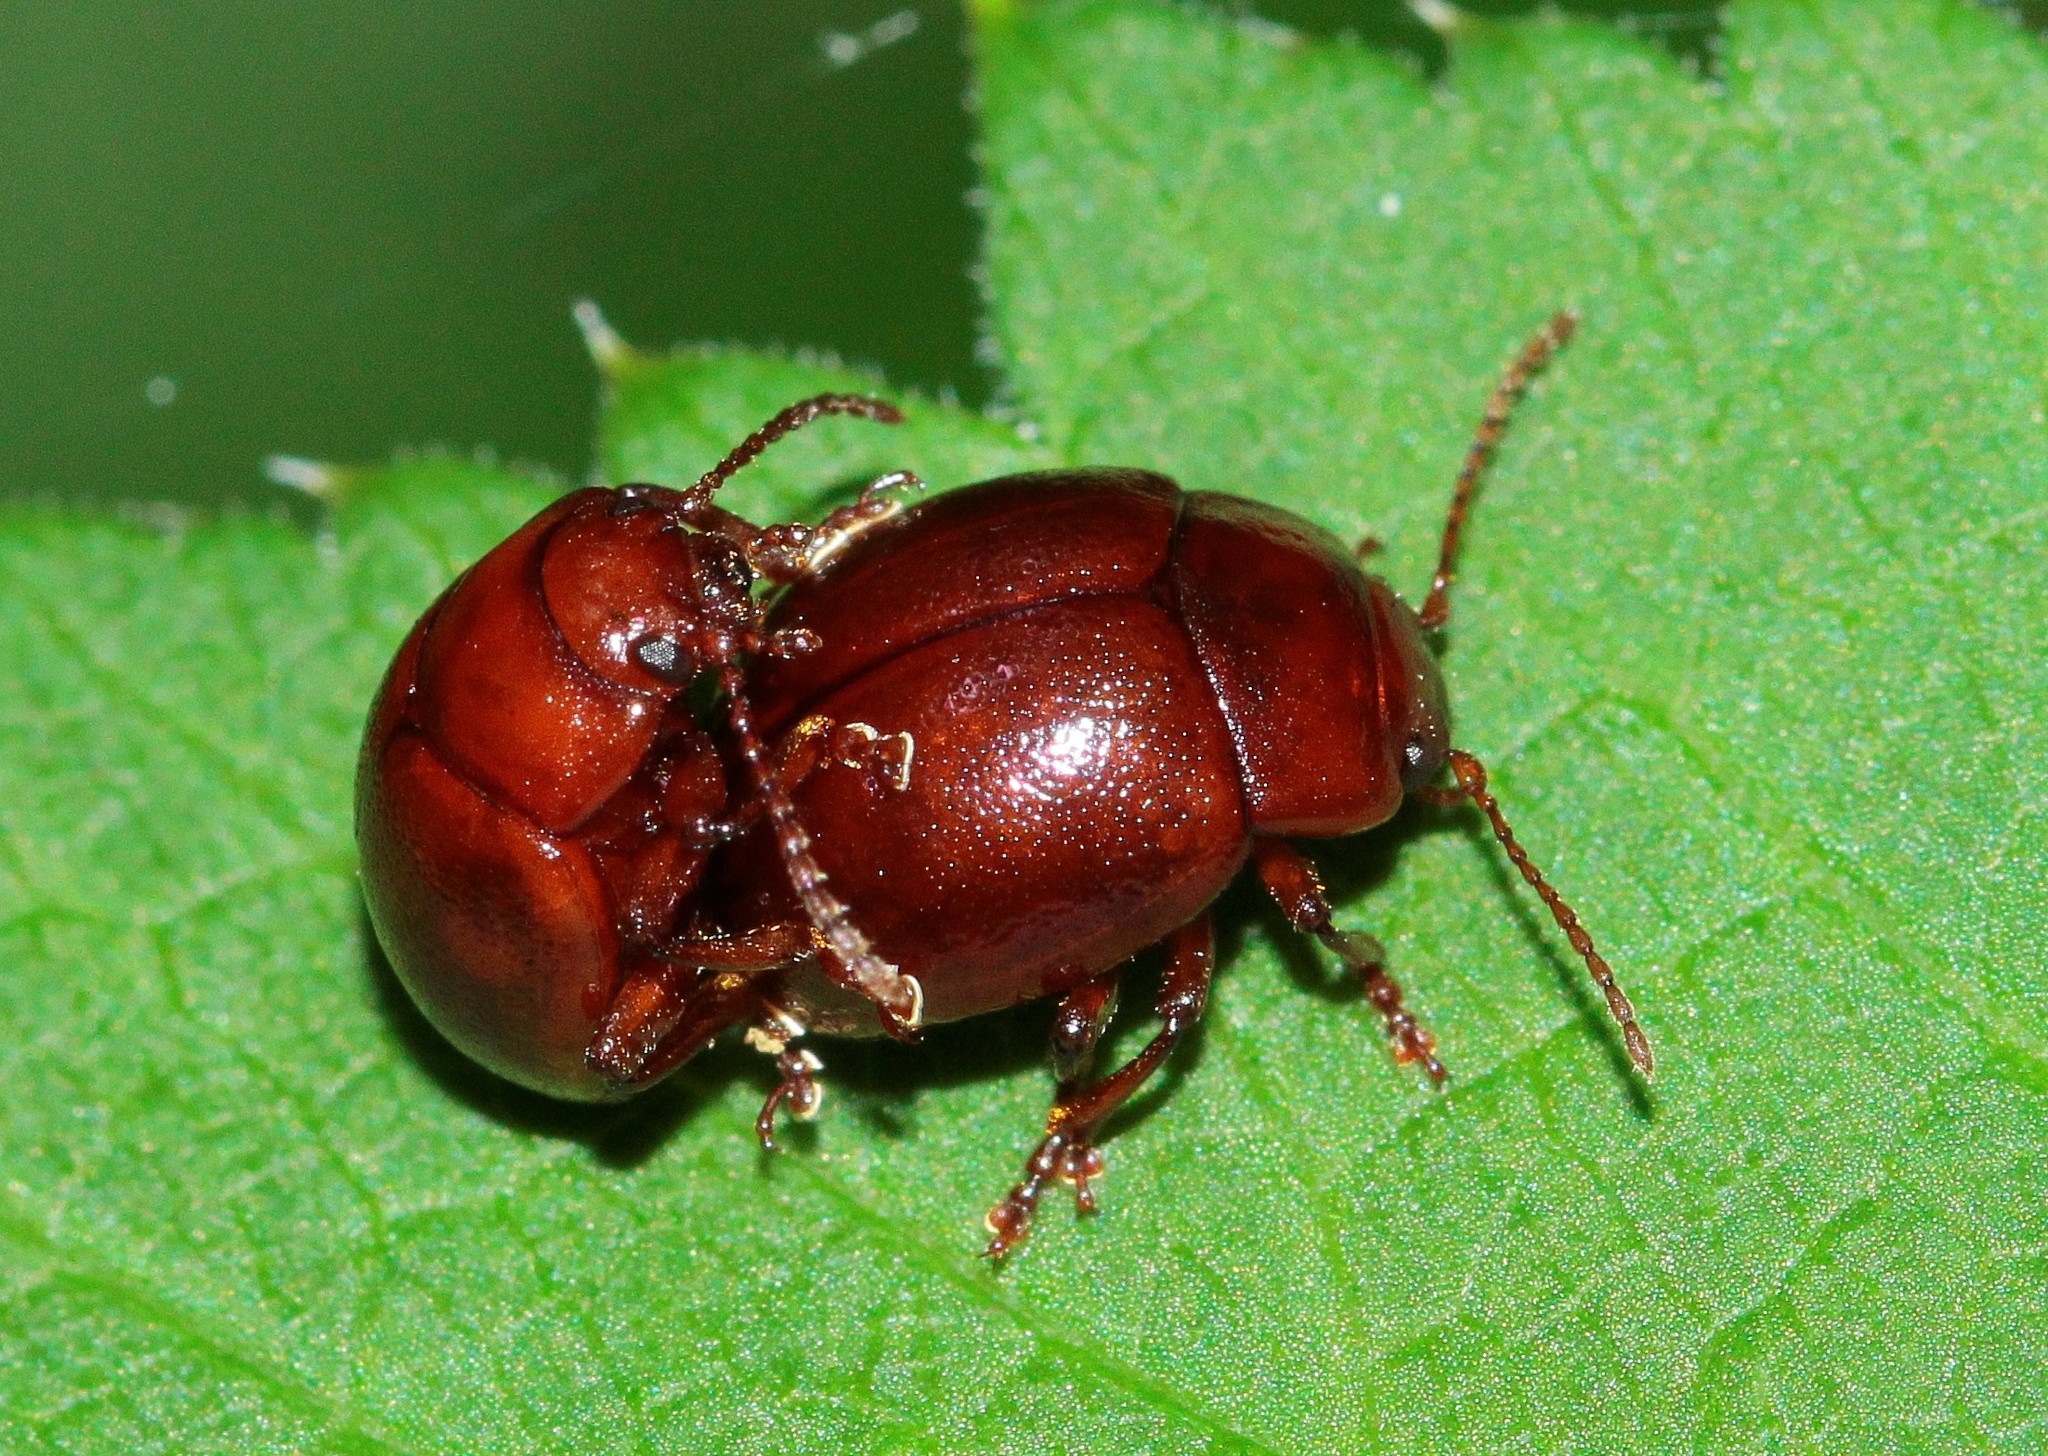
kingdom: Animalia
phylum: Arthropoda
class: Insecta
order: Coleoptera
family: Chrysomelidae
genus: Chrysolina
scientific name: Chrysolina
